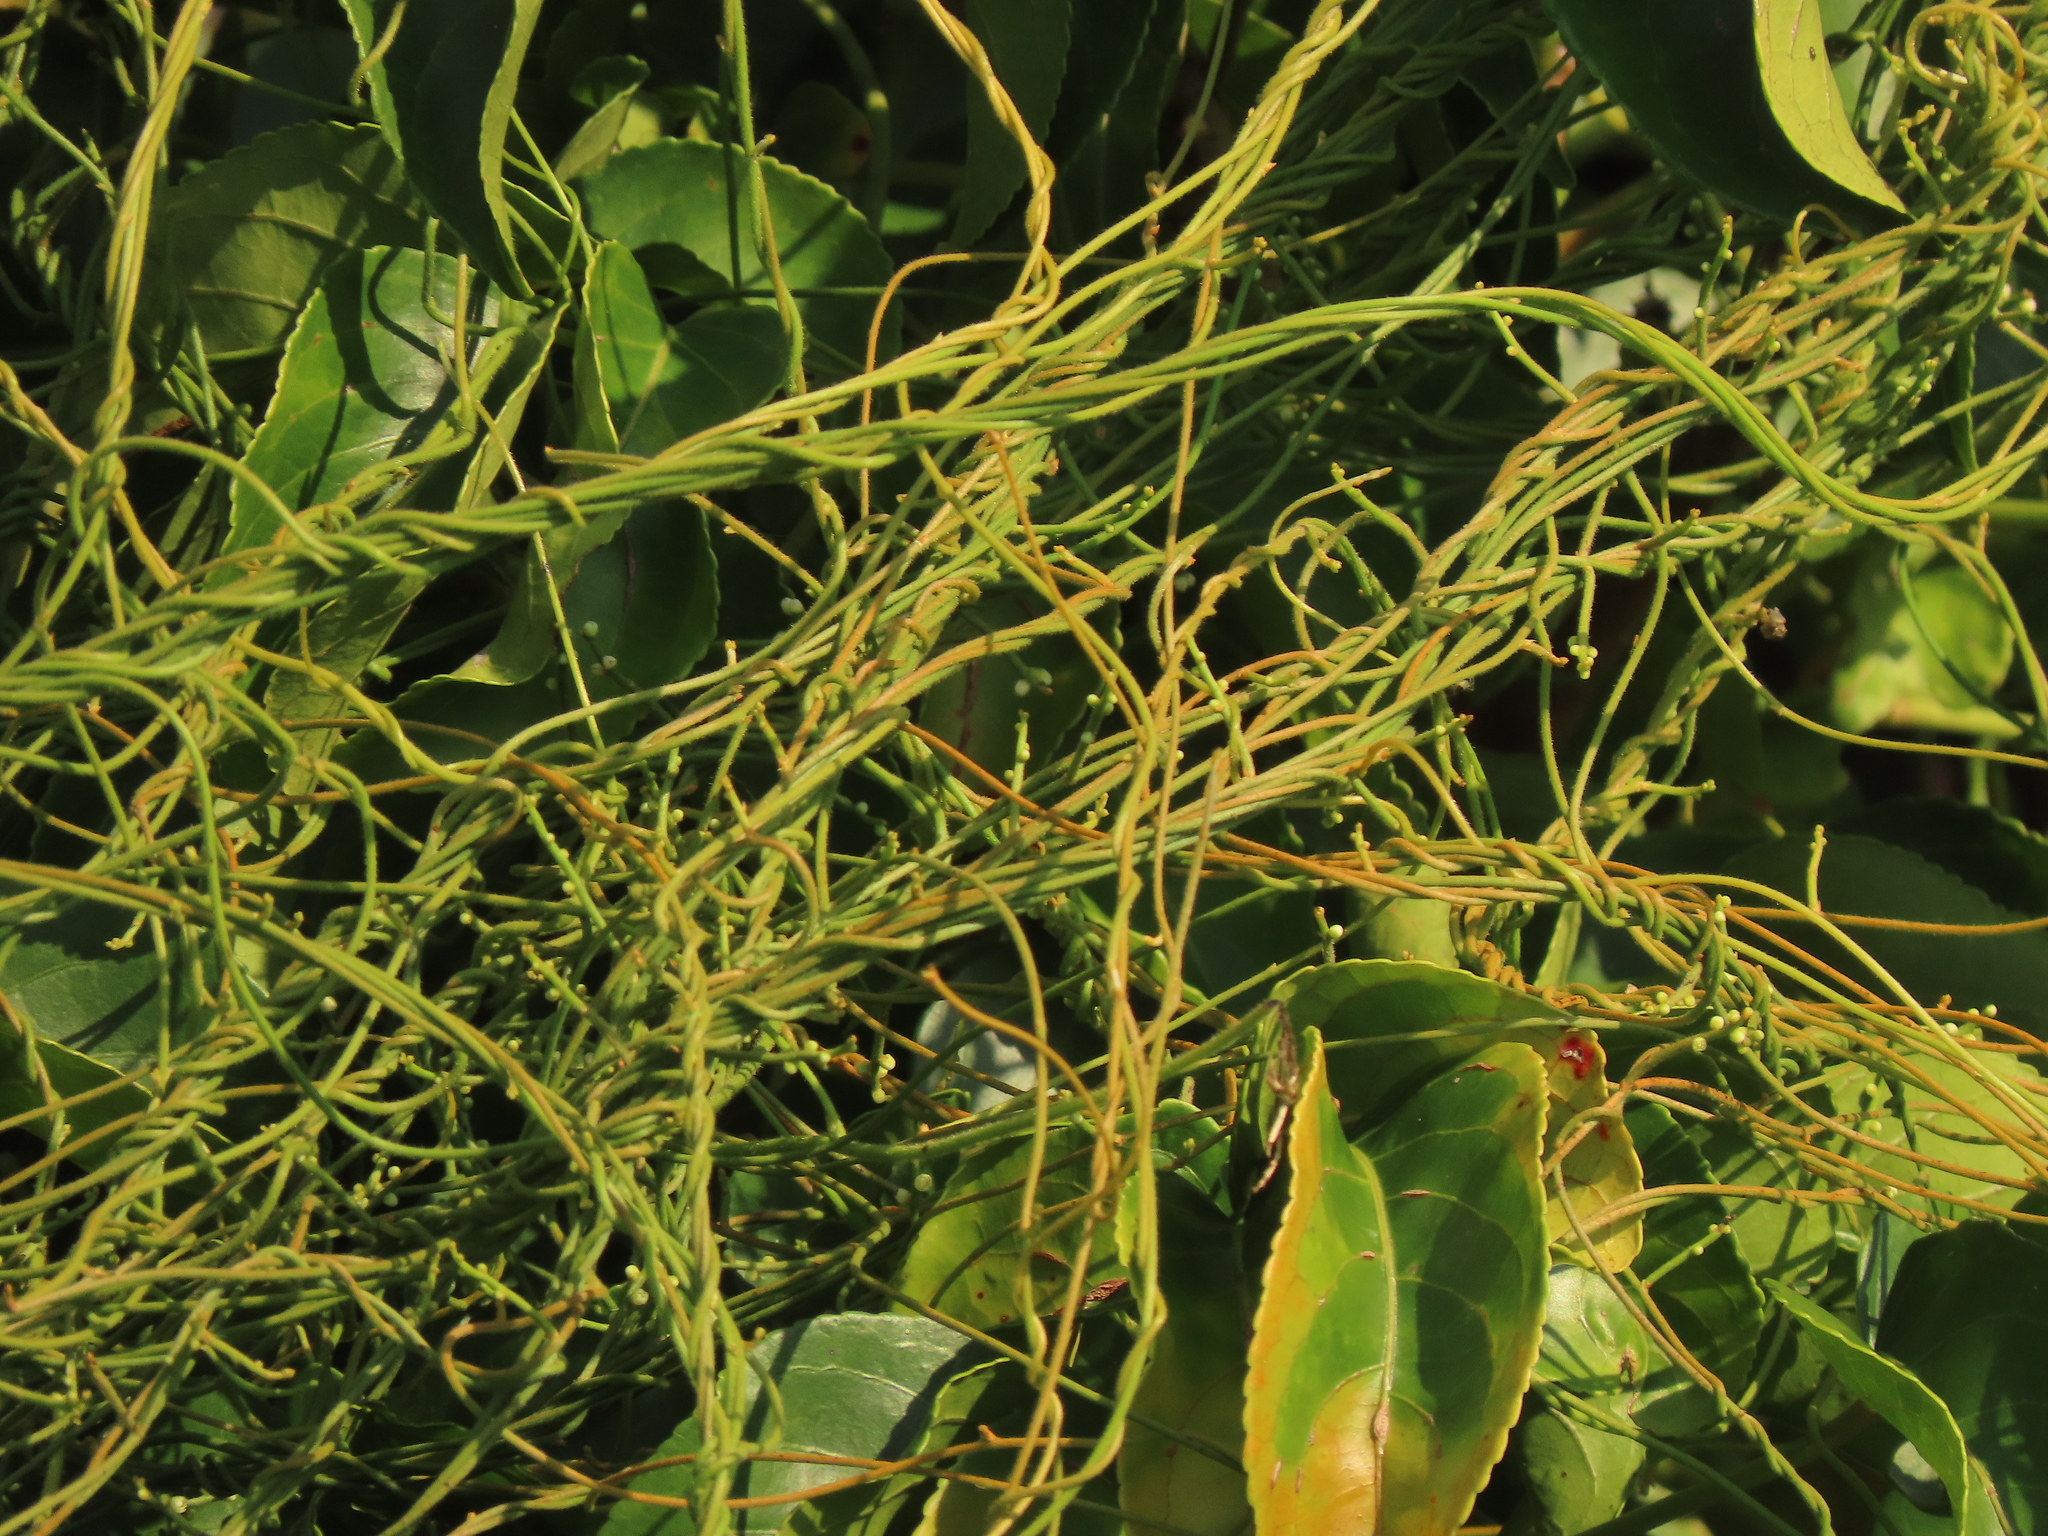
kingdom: Plantae
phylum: Tracheophyta
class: Magnoliopsida
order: Laurales
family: Lauraceae
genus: Cassytha
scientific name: Cassytha filiformis
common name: Dodder-laurel
